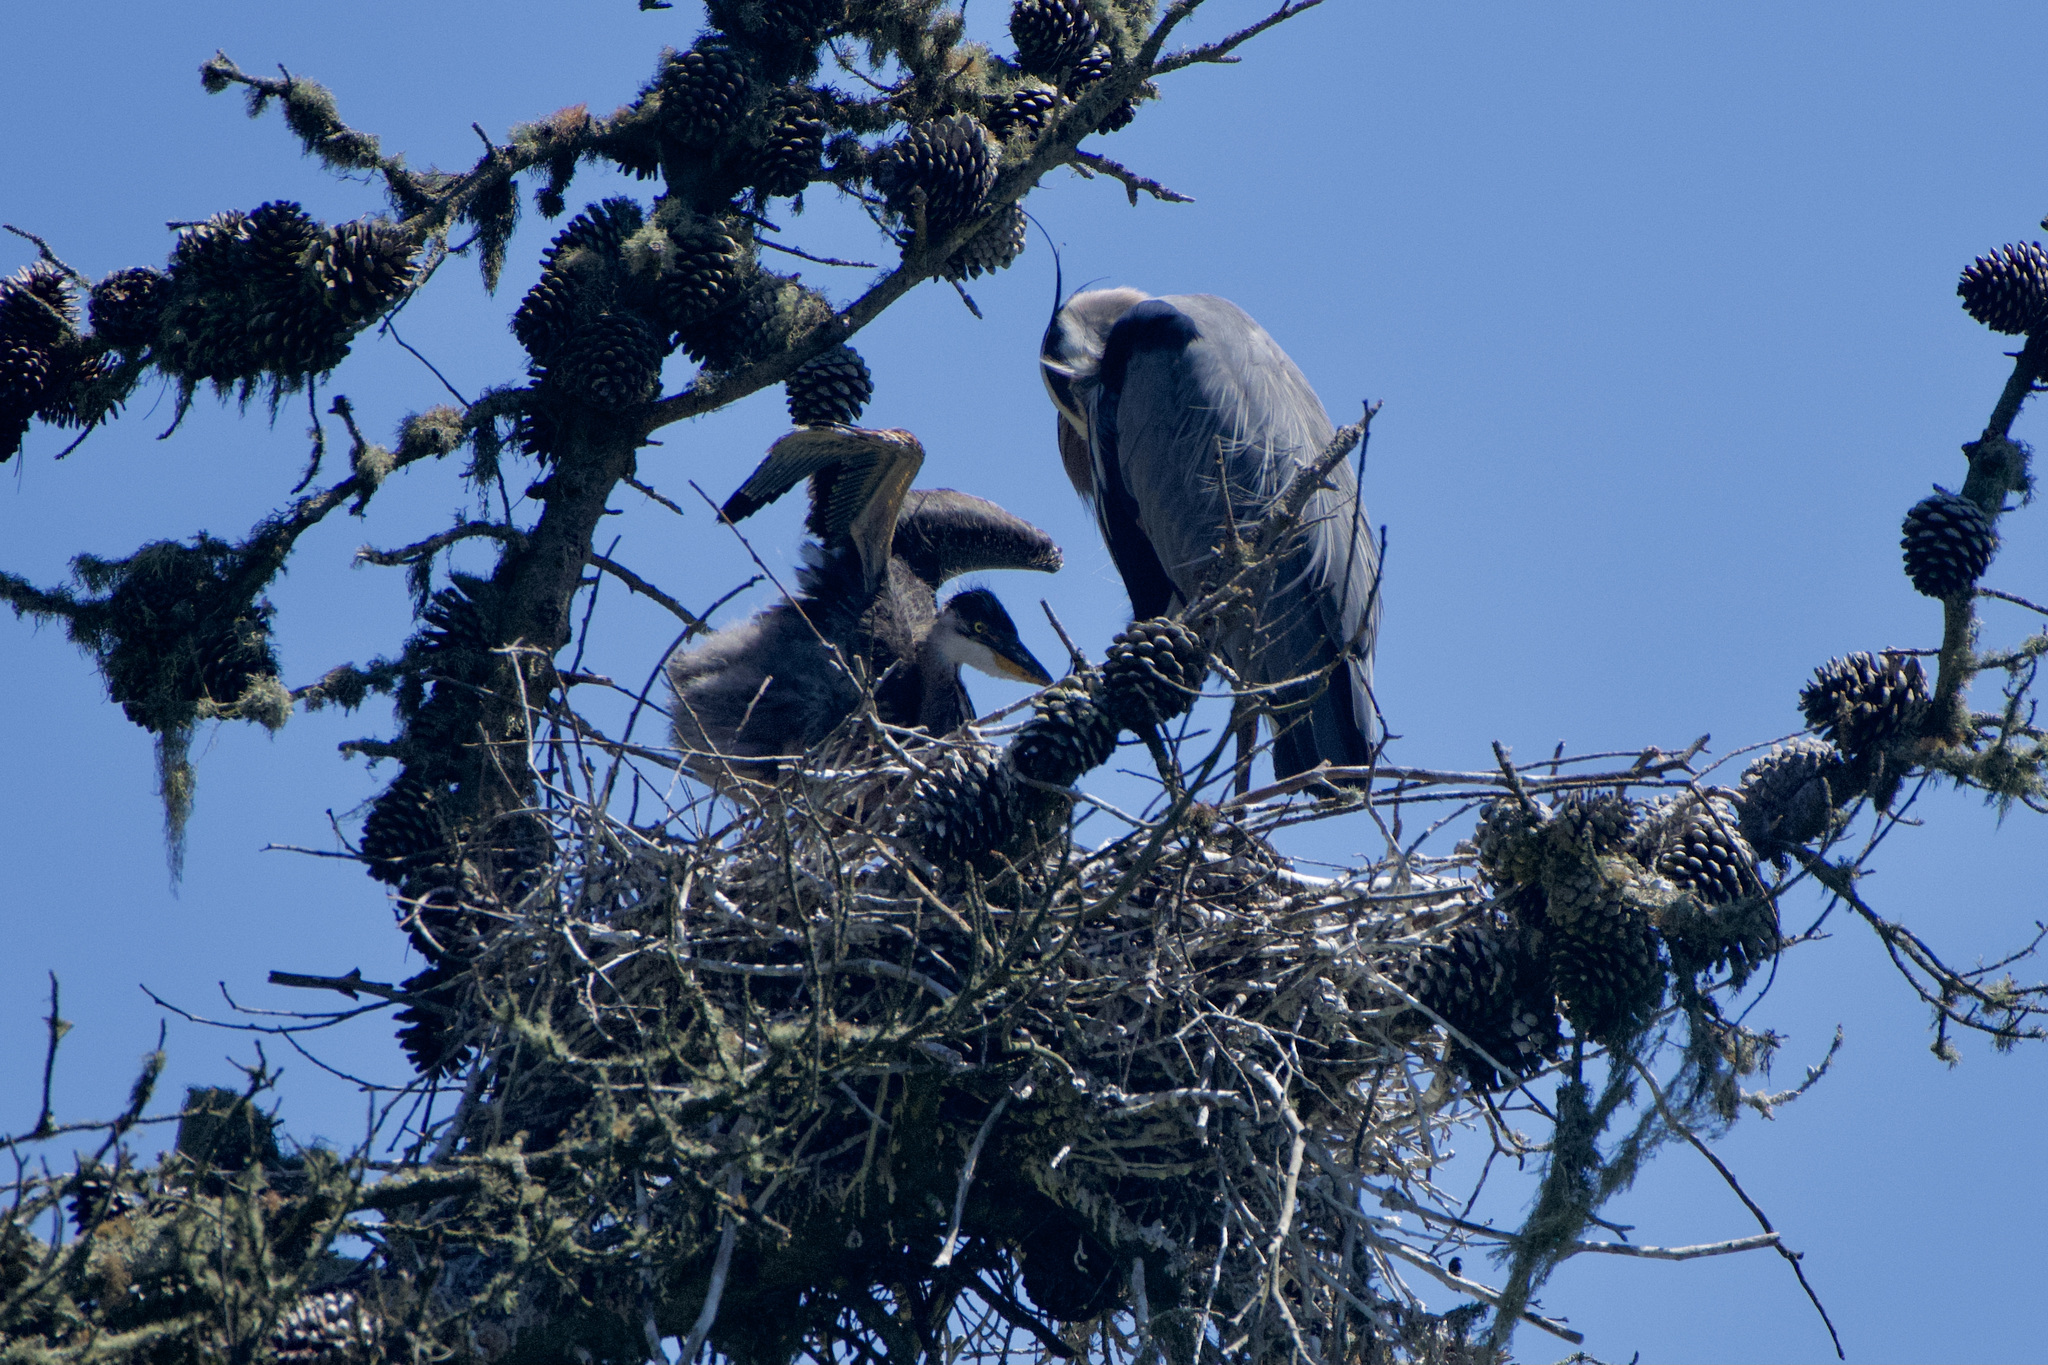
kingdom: Animalia
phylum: Chordata
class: Aves
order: Pelecaniformes
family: Ardeidae
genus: Ardea
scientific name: Ardea herodias
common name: Great blue heron
